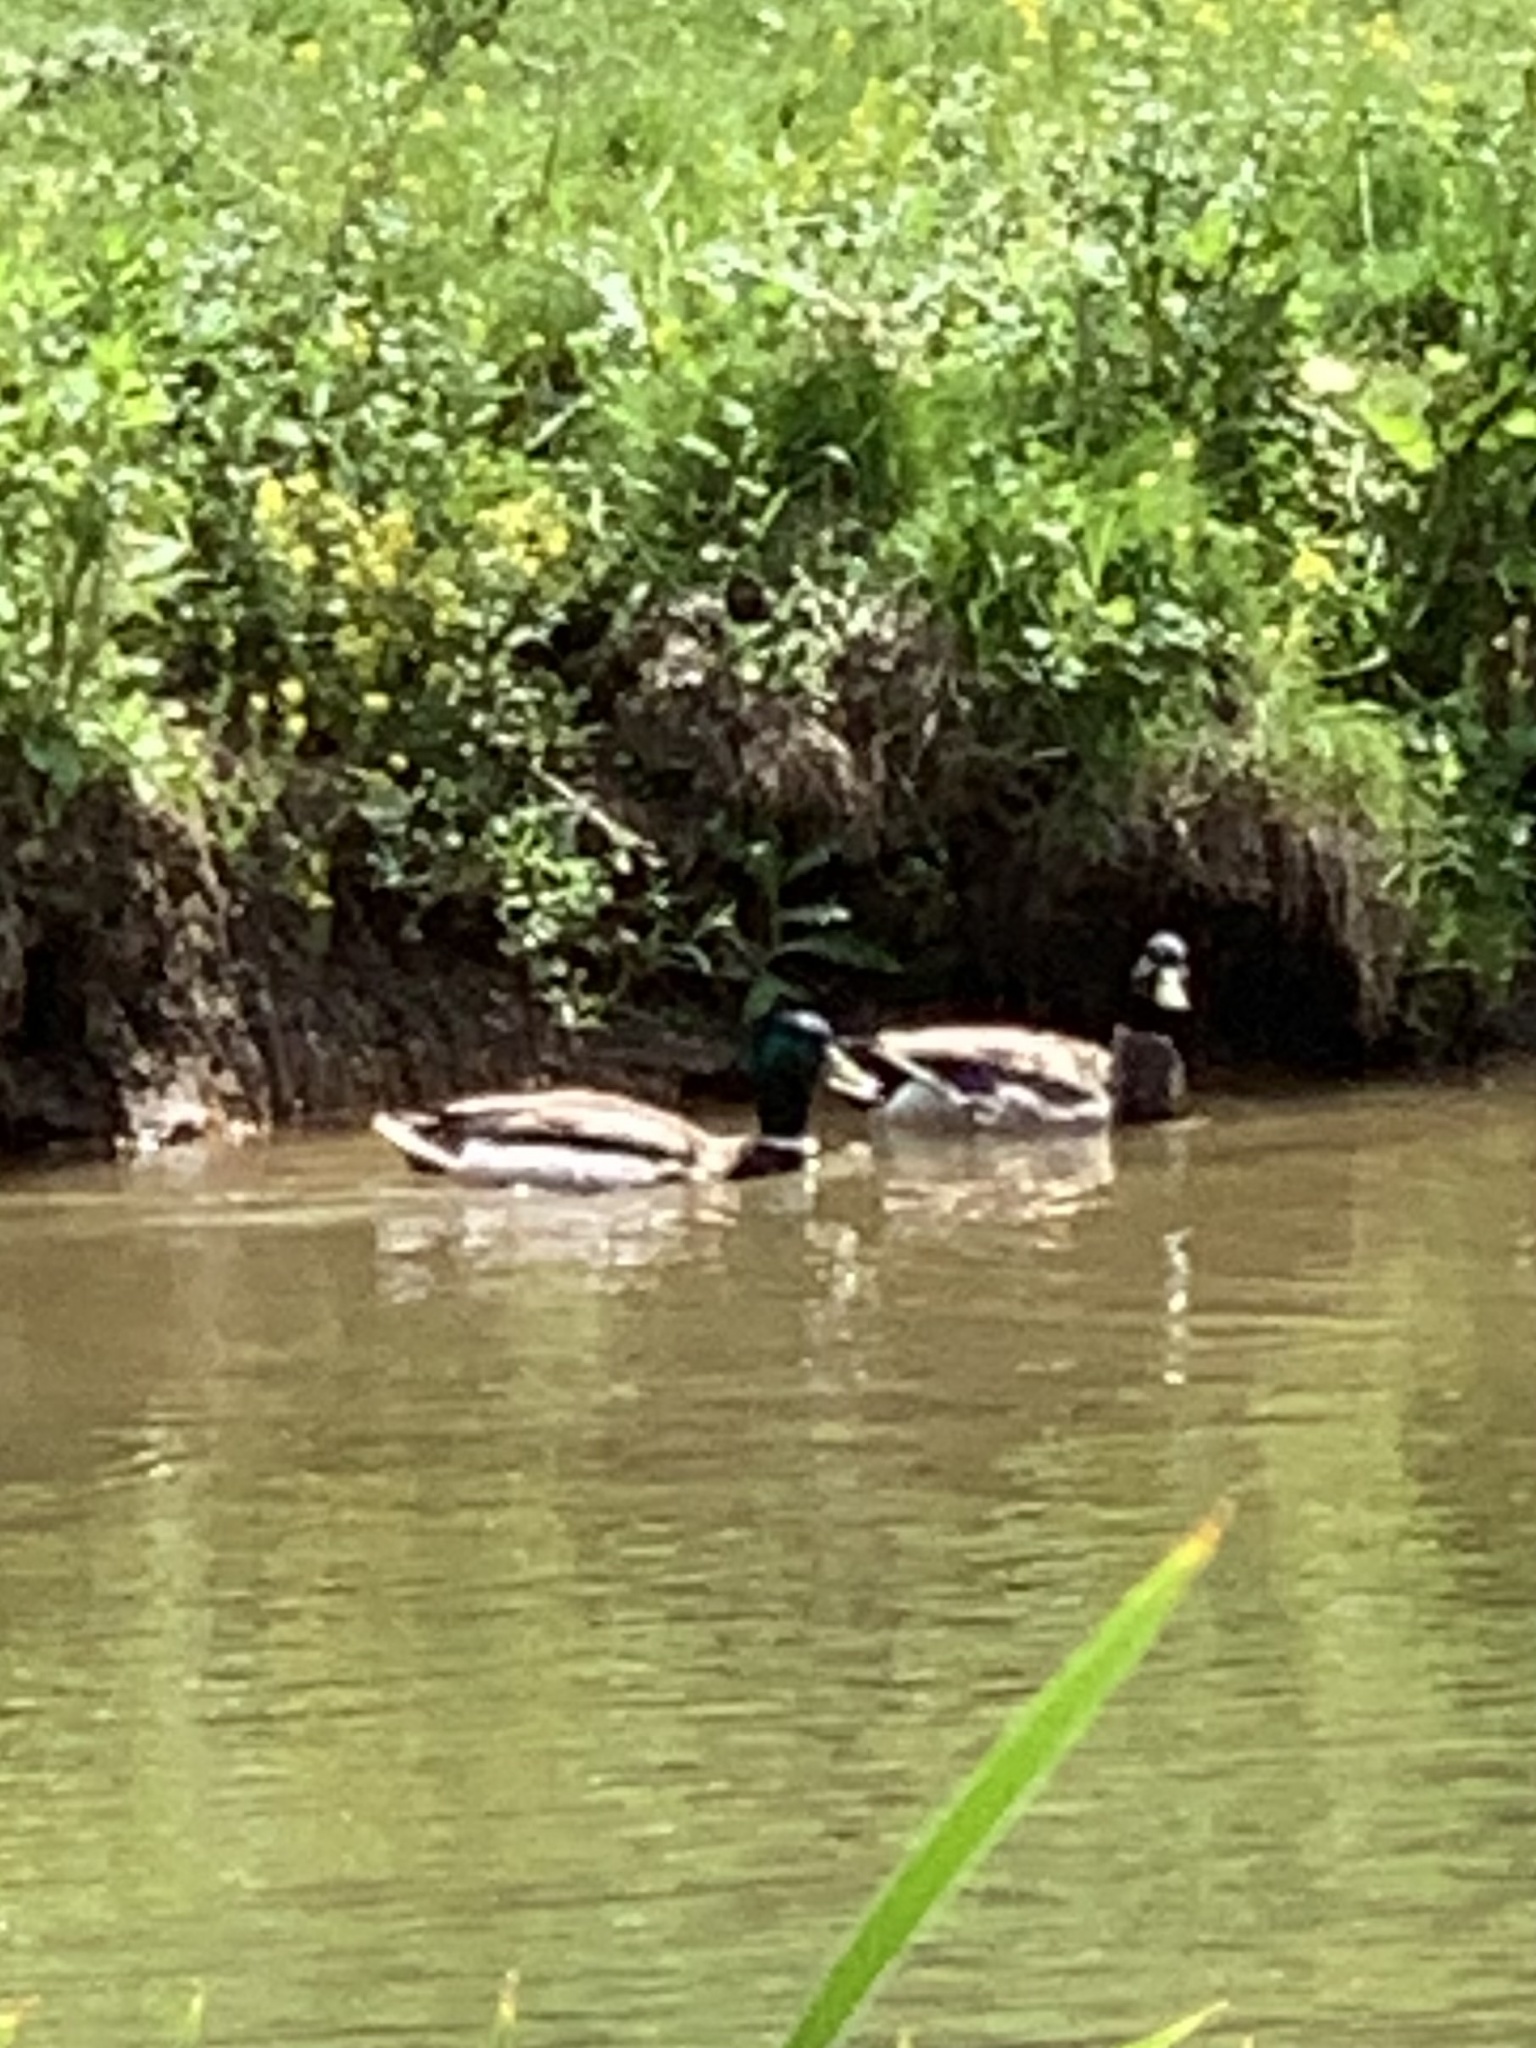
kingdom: Animalia
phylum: Chordata
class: Aves
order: Anseriformes
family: Anatidae
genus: Anas
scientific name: Anas platyrhynchos
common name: Mallard
